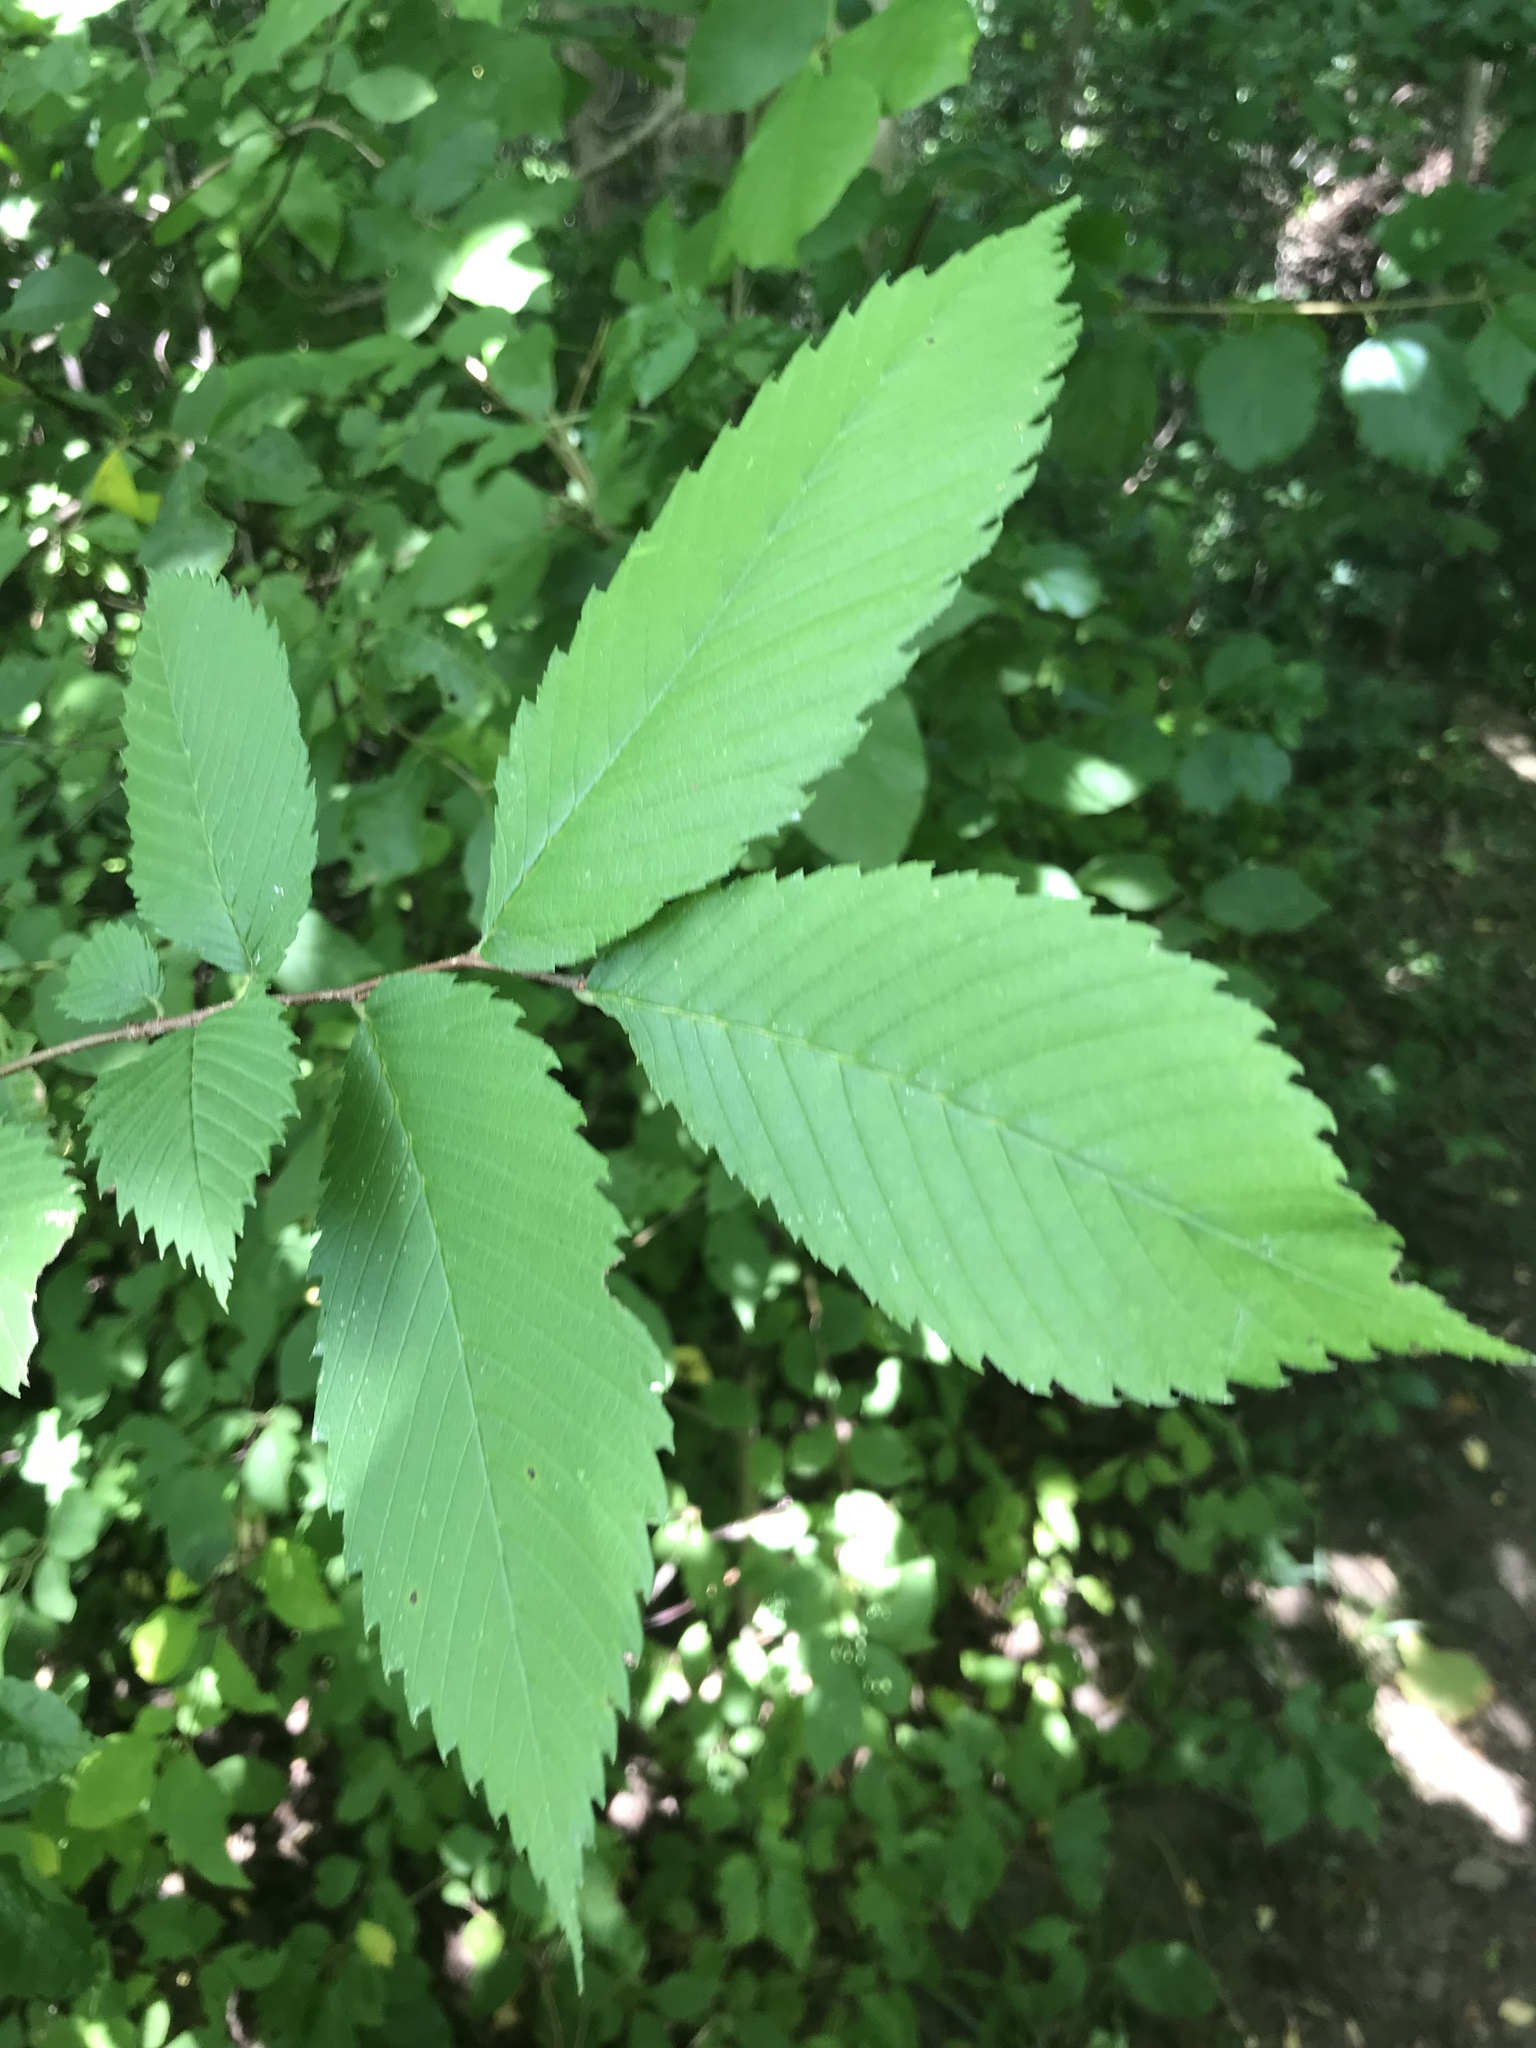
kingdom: Plantae
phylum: Tracheophyta
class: Magnoliopsida
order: Rosales
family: Ulmaceae
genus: Ulmus
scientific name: Ulmus americana
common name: American elm
